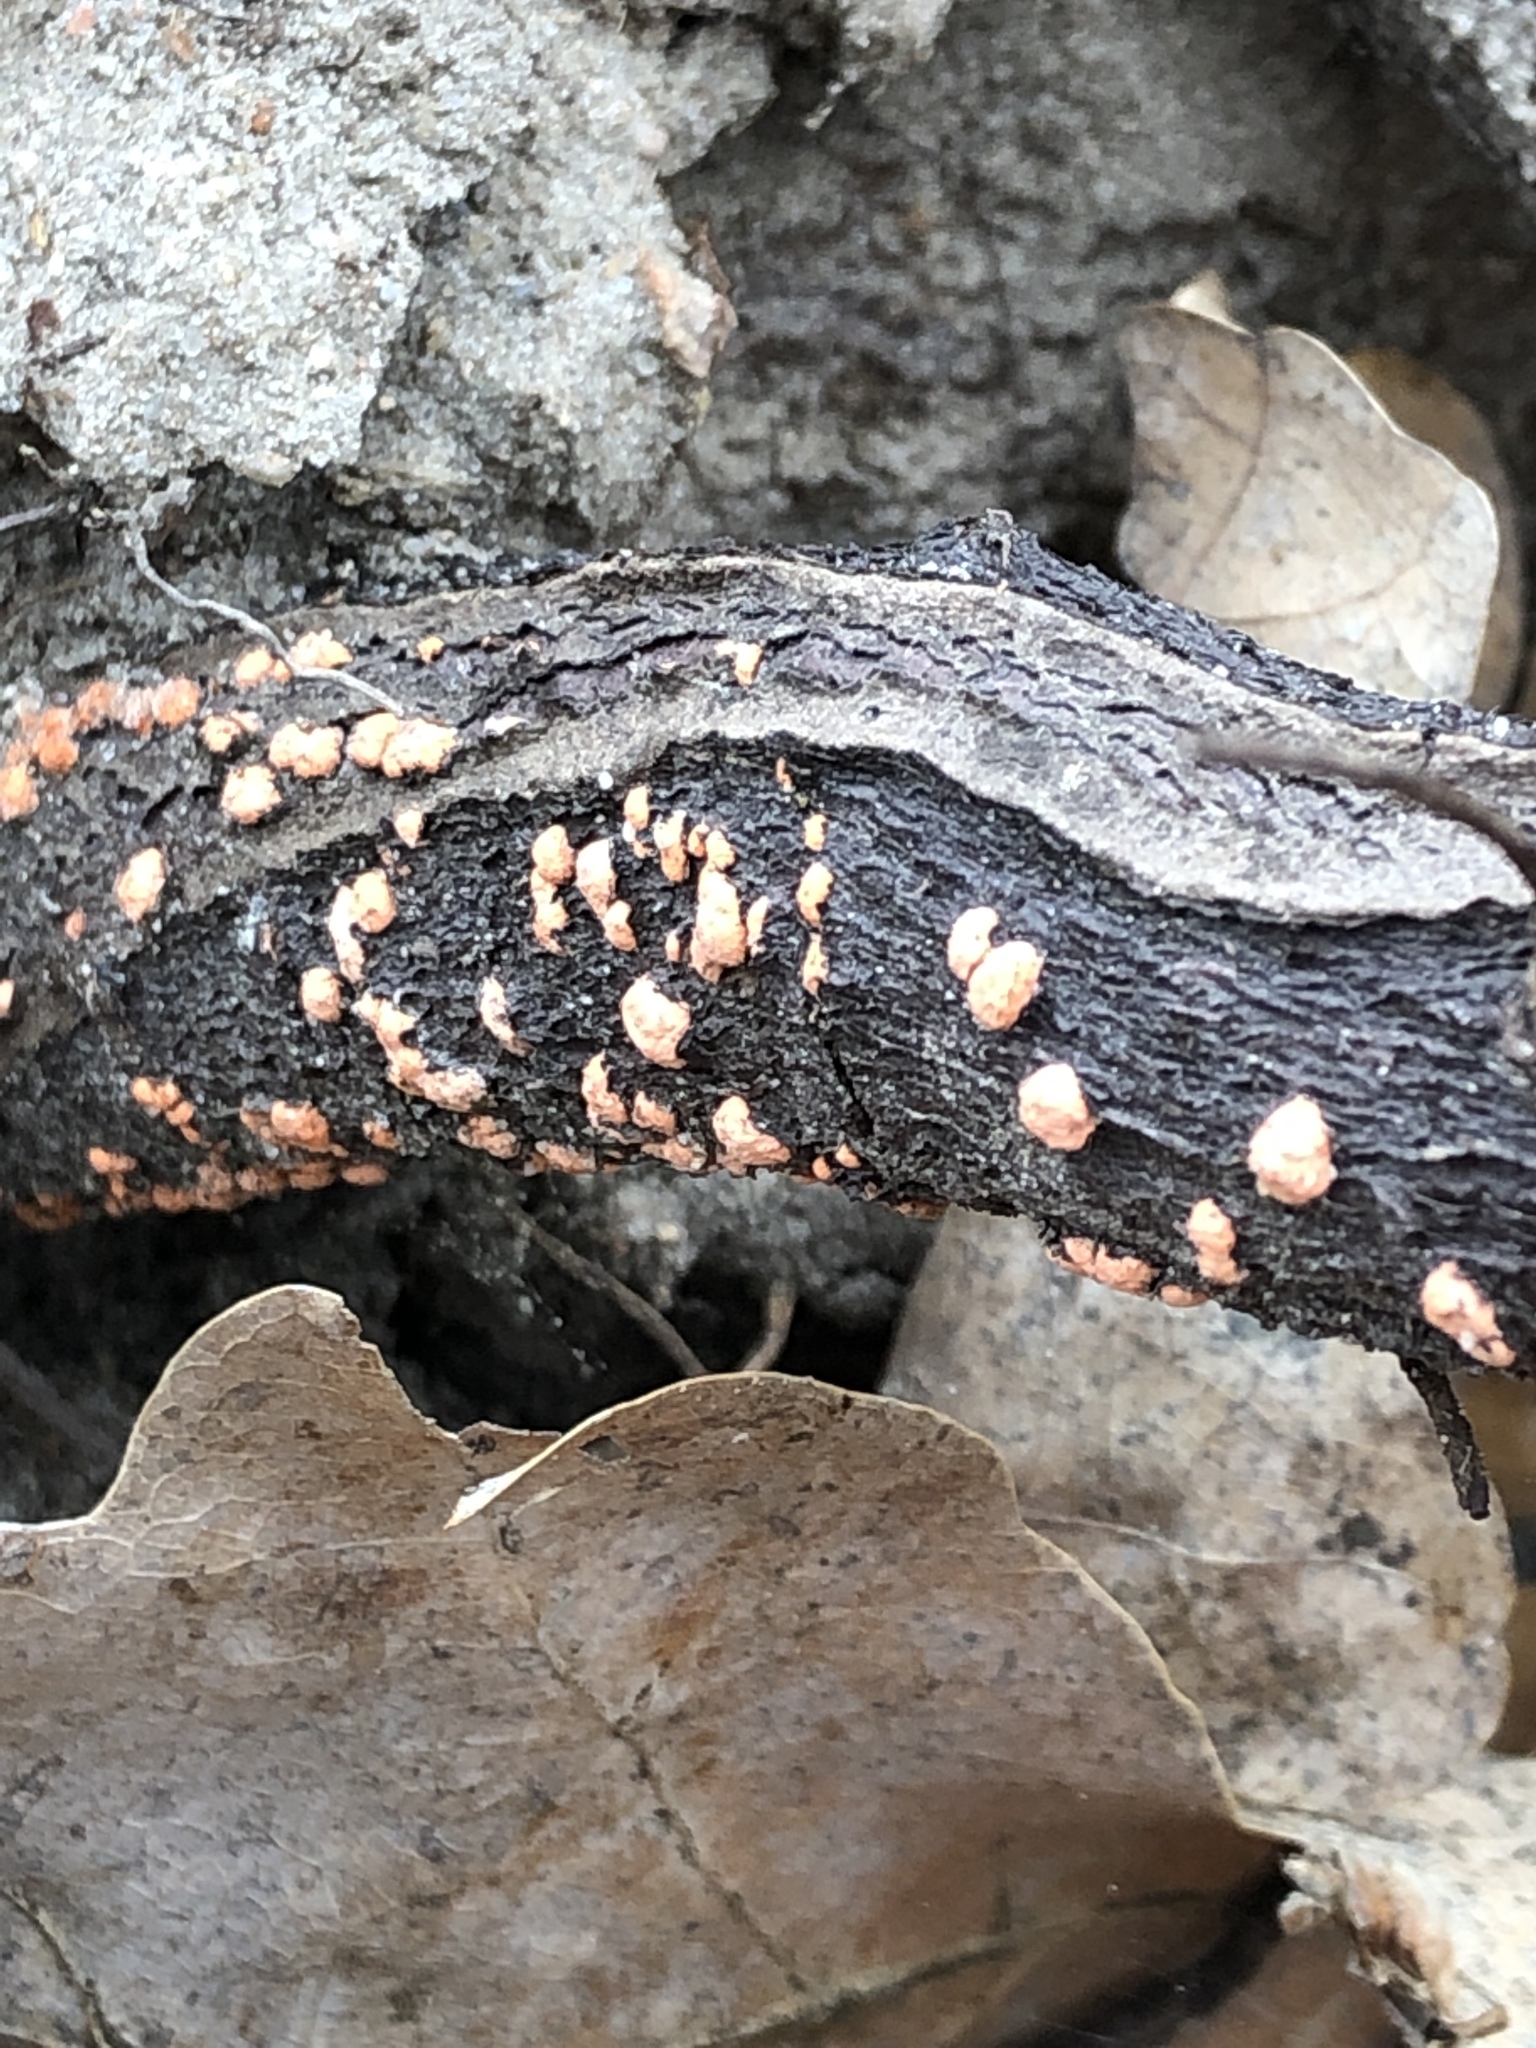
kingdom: Fungi
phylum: Ascomycota
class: Sordariomycetes
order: Hypocreales
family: Nectriaceae
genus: Nectria
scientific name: Nectria cinnabarina
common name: Coral spot
